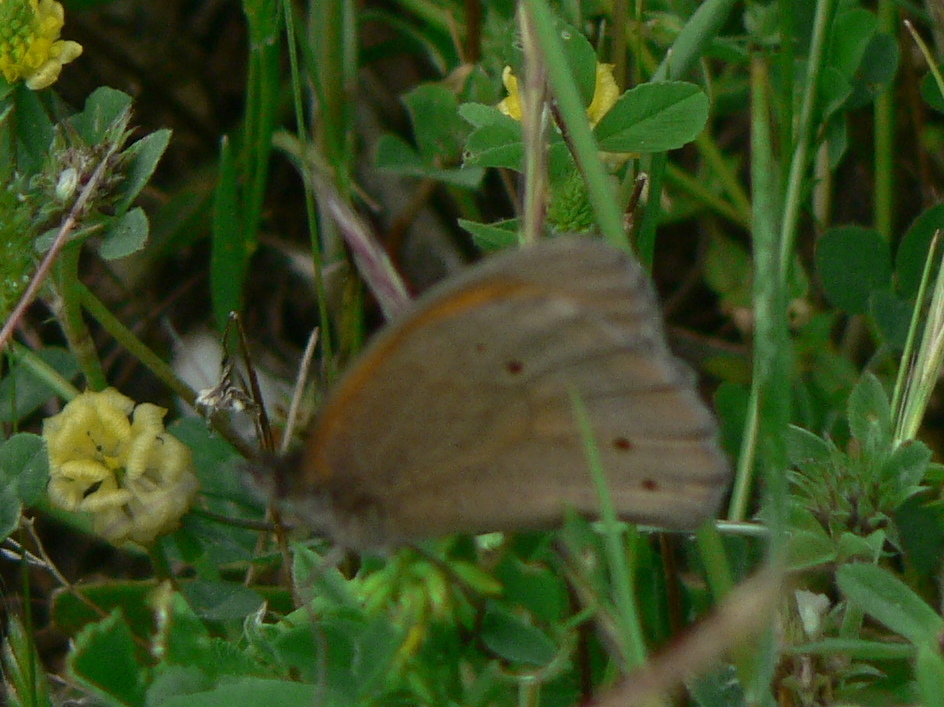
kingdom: Animalia
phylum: Arthropoda
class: Insecta
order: Lepidoptera
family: Nymphalidae
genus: Maniola
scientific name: Maniola jurtina
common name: Meadow brown
